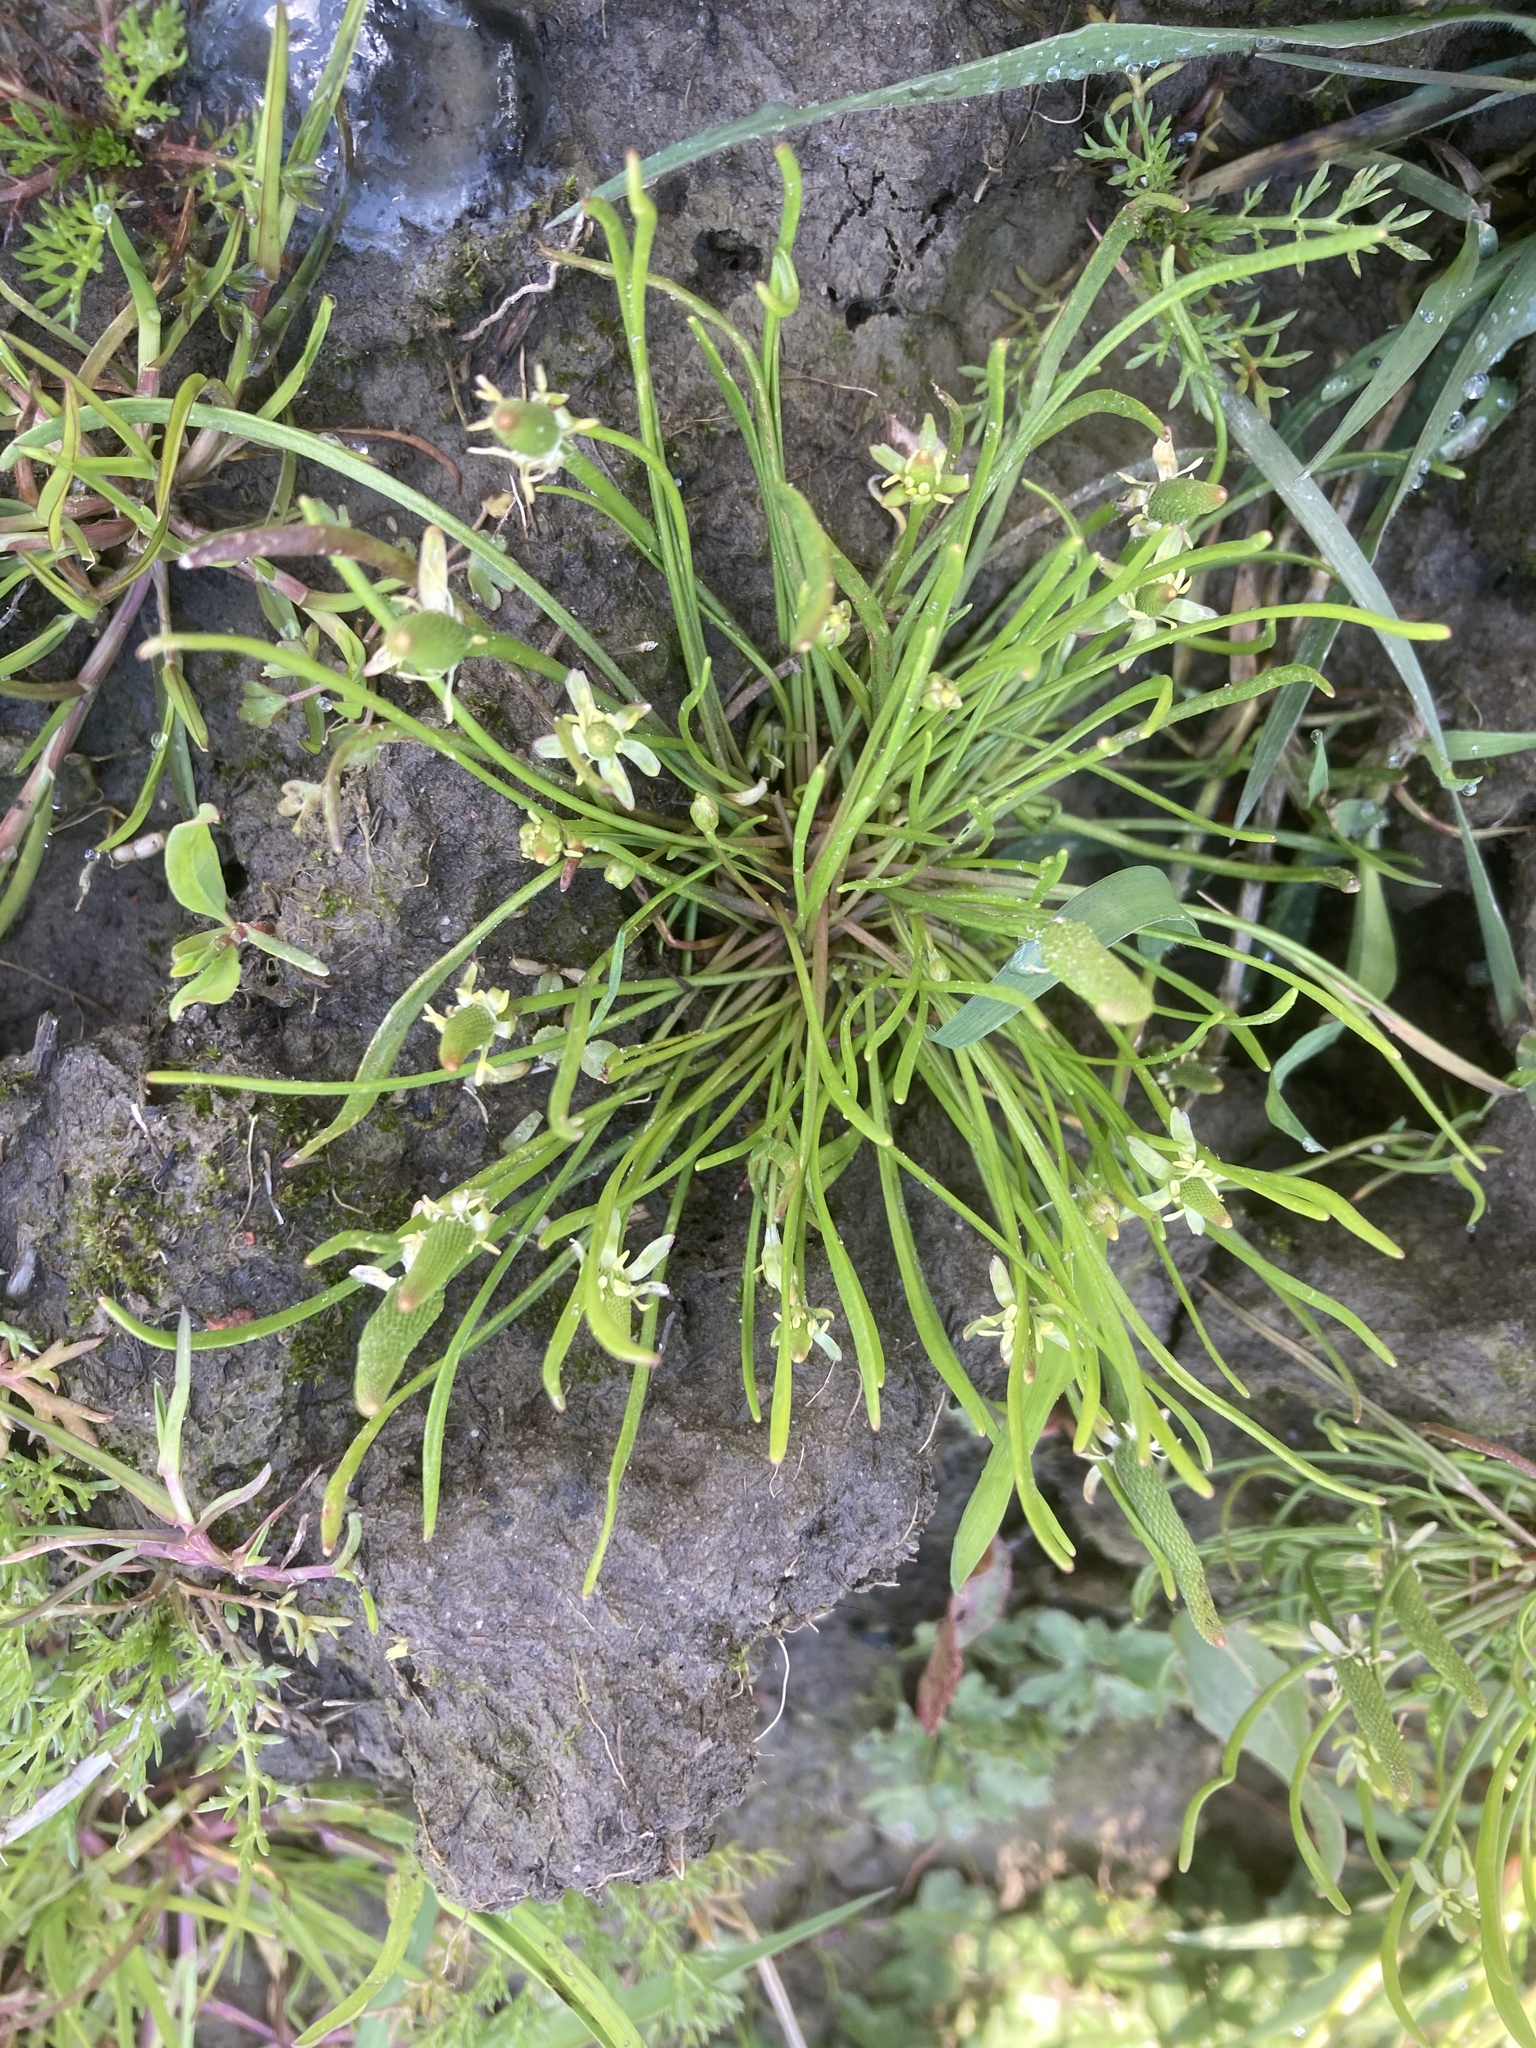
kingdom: Plantae
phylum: Tracheophyta
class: Magnoliopsida
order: Ranunculales
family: Ranunculaceae
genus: Myosurus
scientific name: Myosurus minimus
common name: Mousetail
